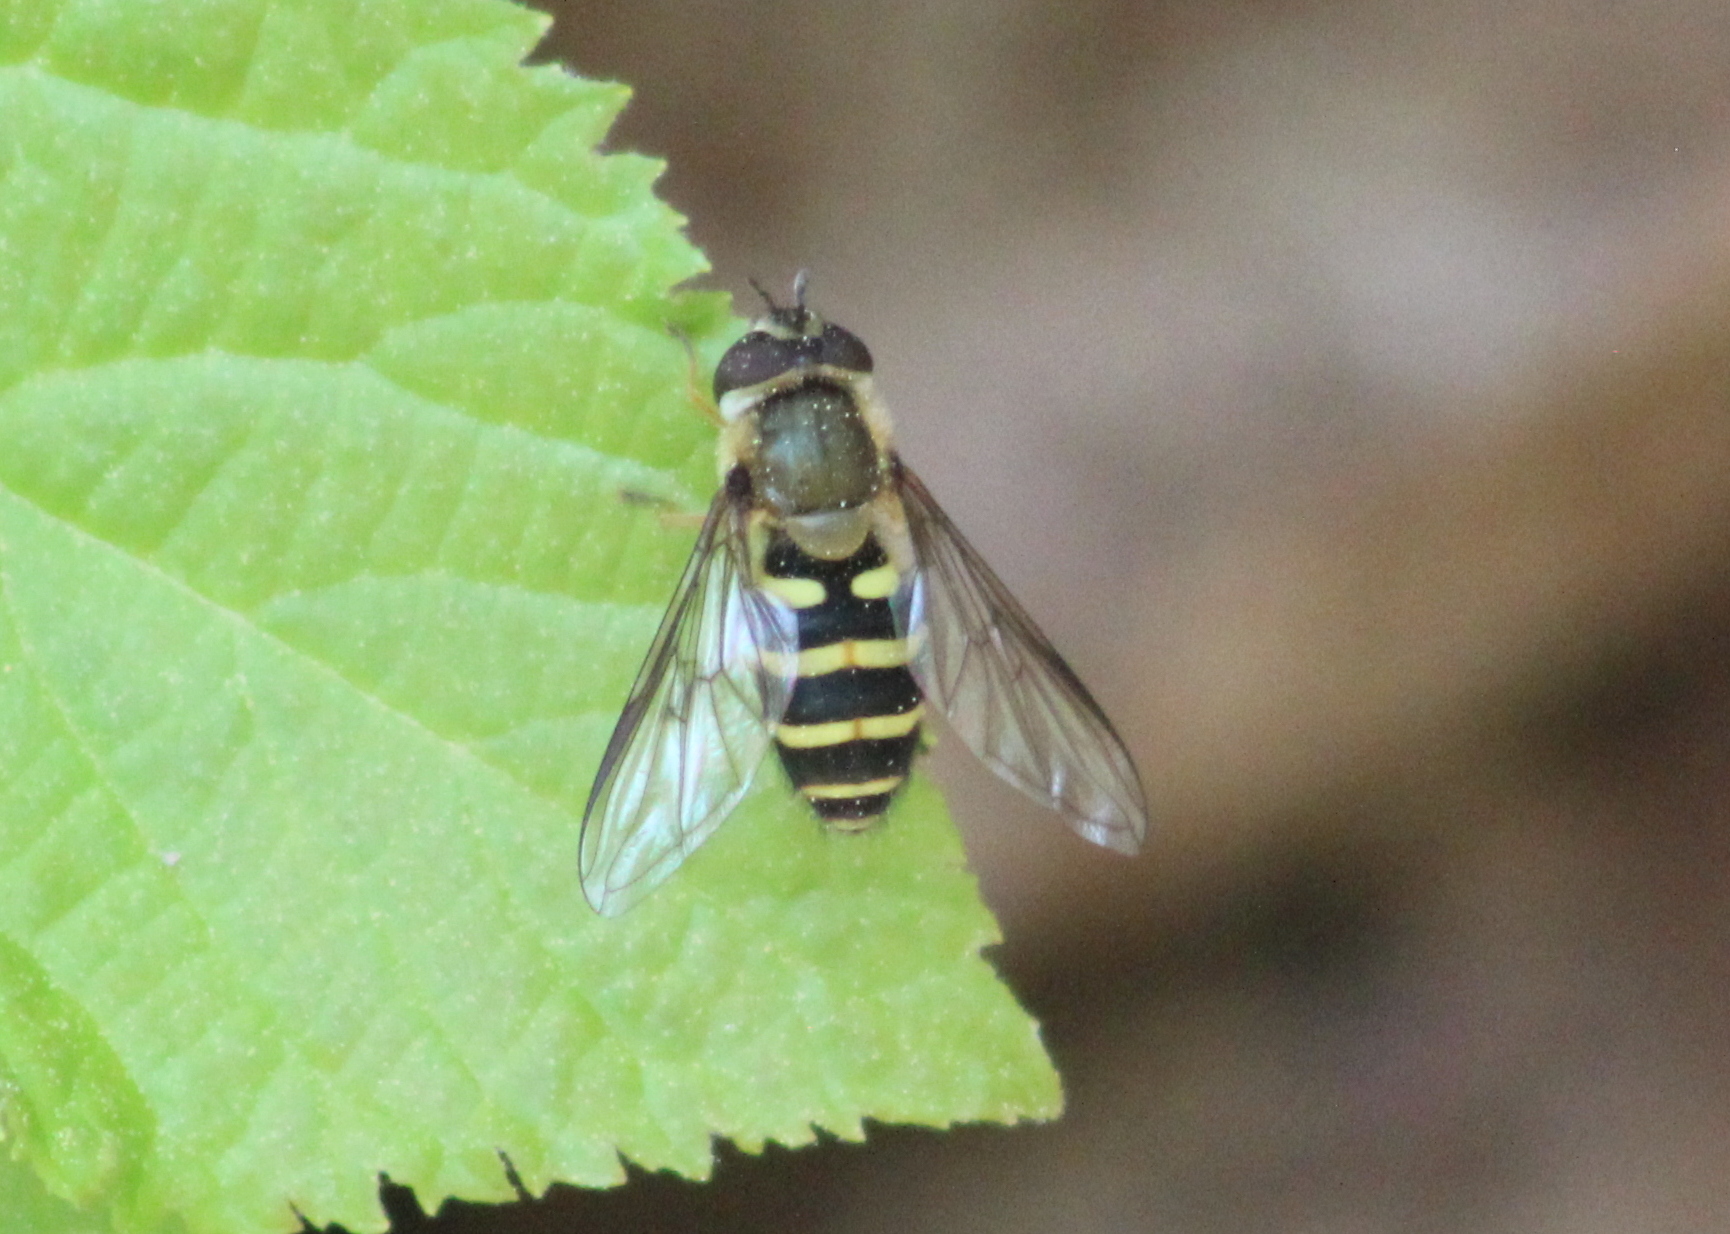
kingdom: Animalia
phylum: Arthropoda
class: Insecta
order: Diptera
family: Syrphidae
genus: Syrphus
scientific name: Syrphus
